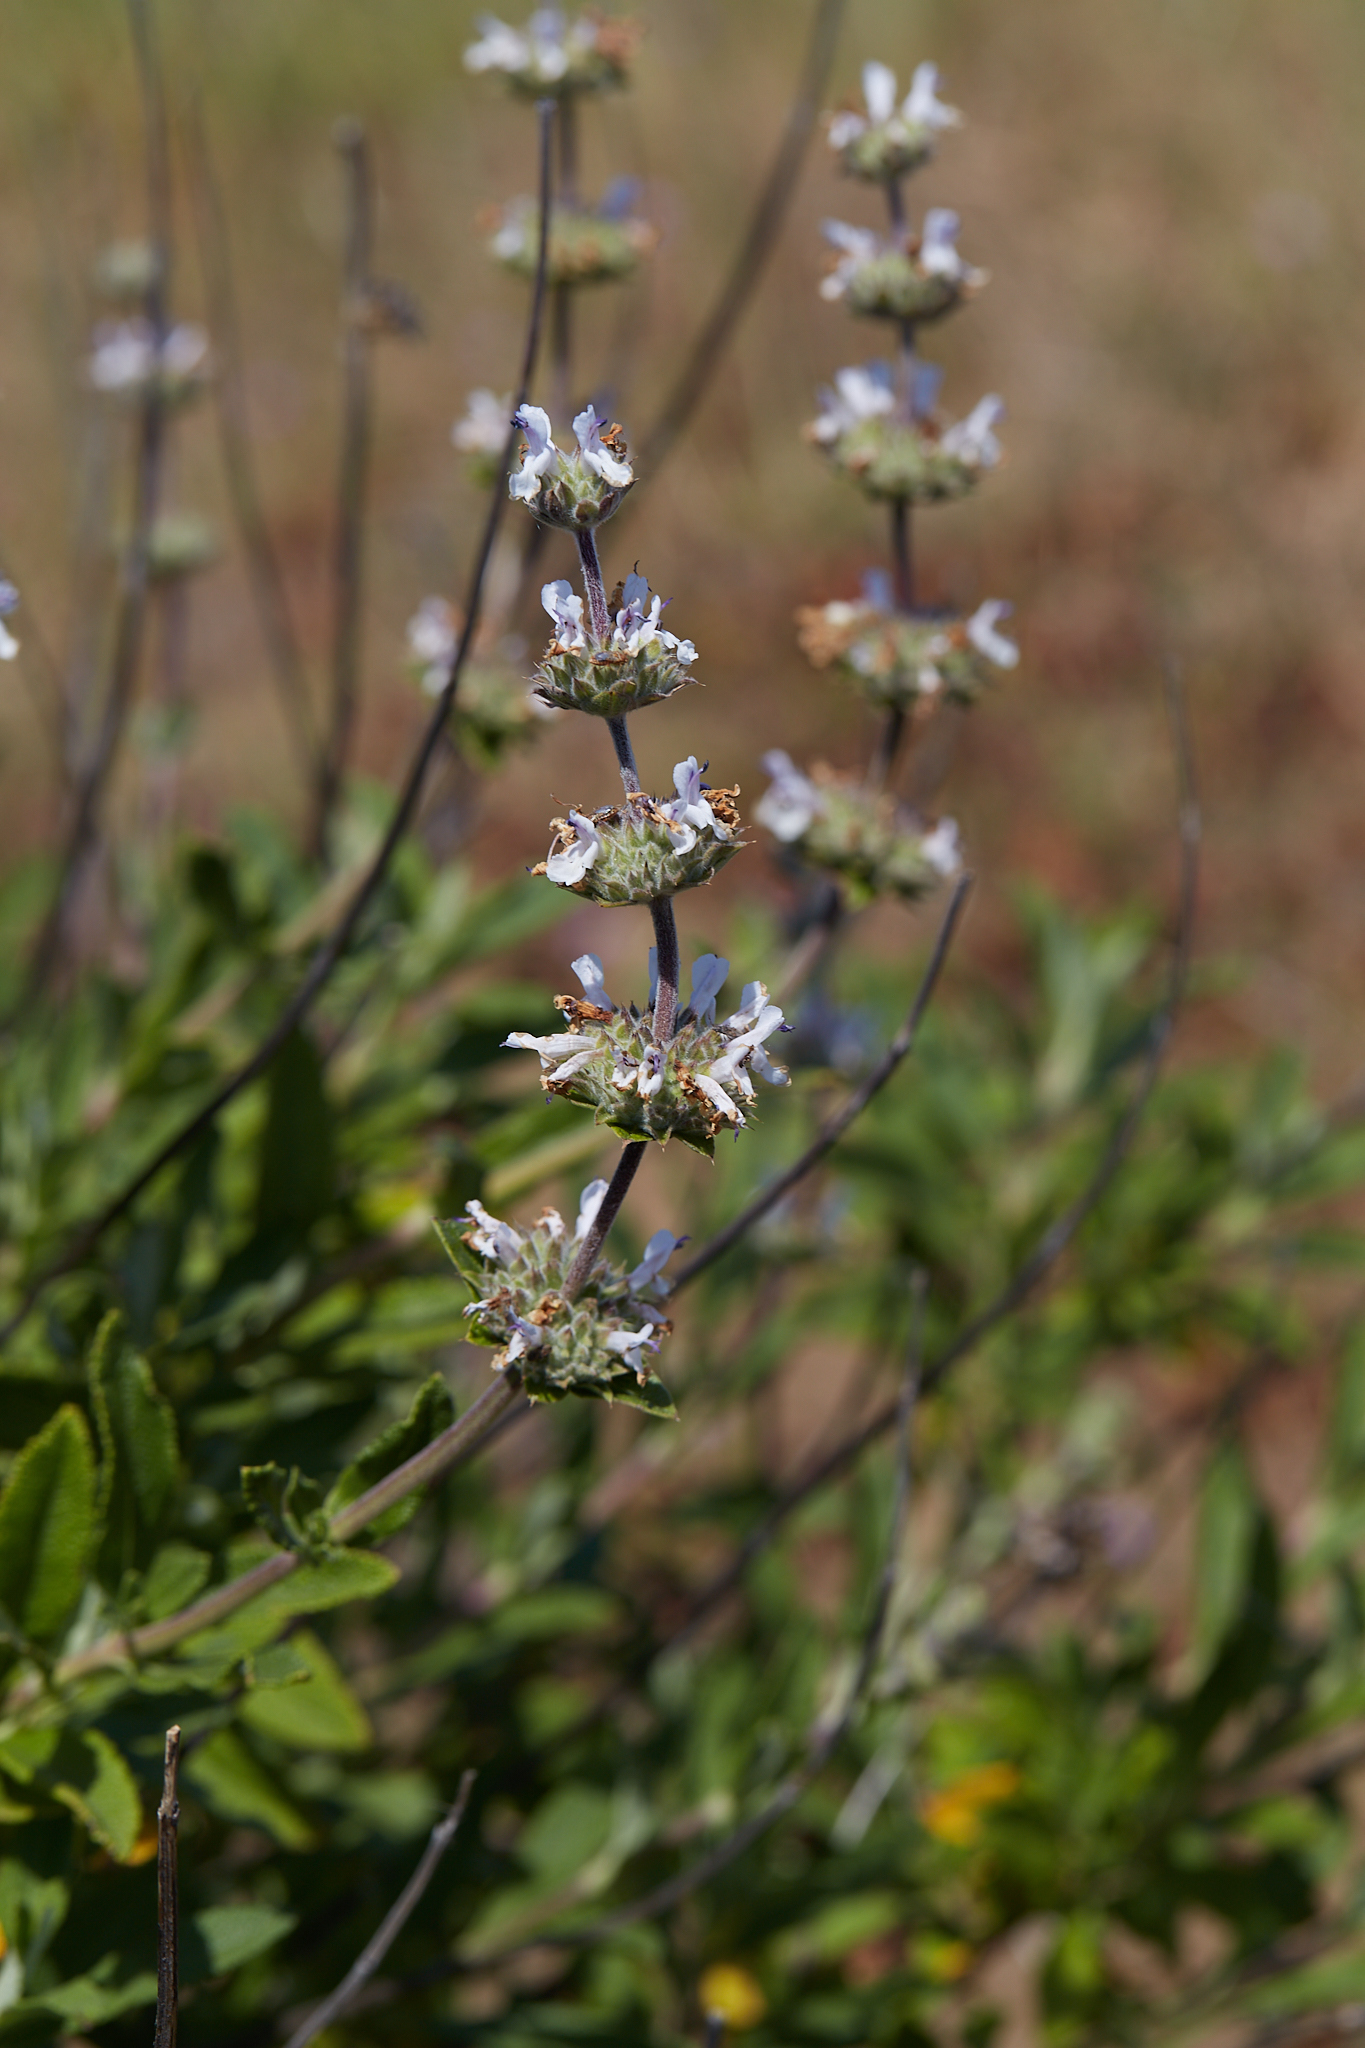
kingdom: Plantae
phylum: Tracheophyta
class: Magnoliopsida
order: Lamiales
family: Lamiaceae
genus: Salvia
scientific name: Salvia mellifera
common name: Black sage
